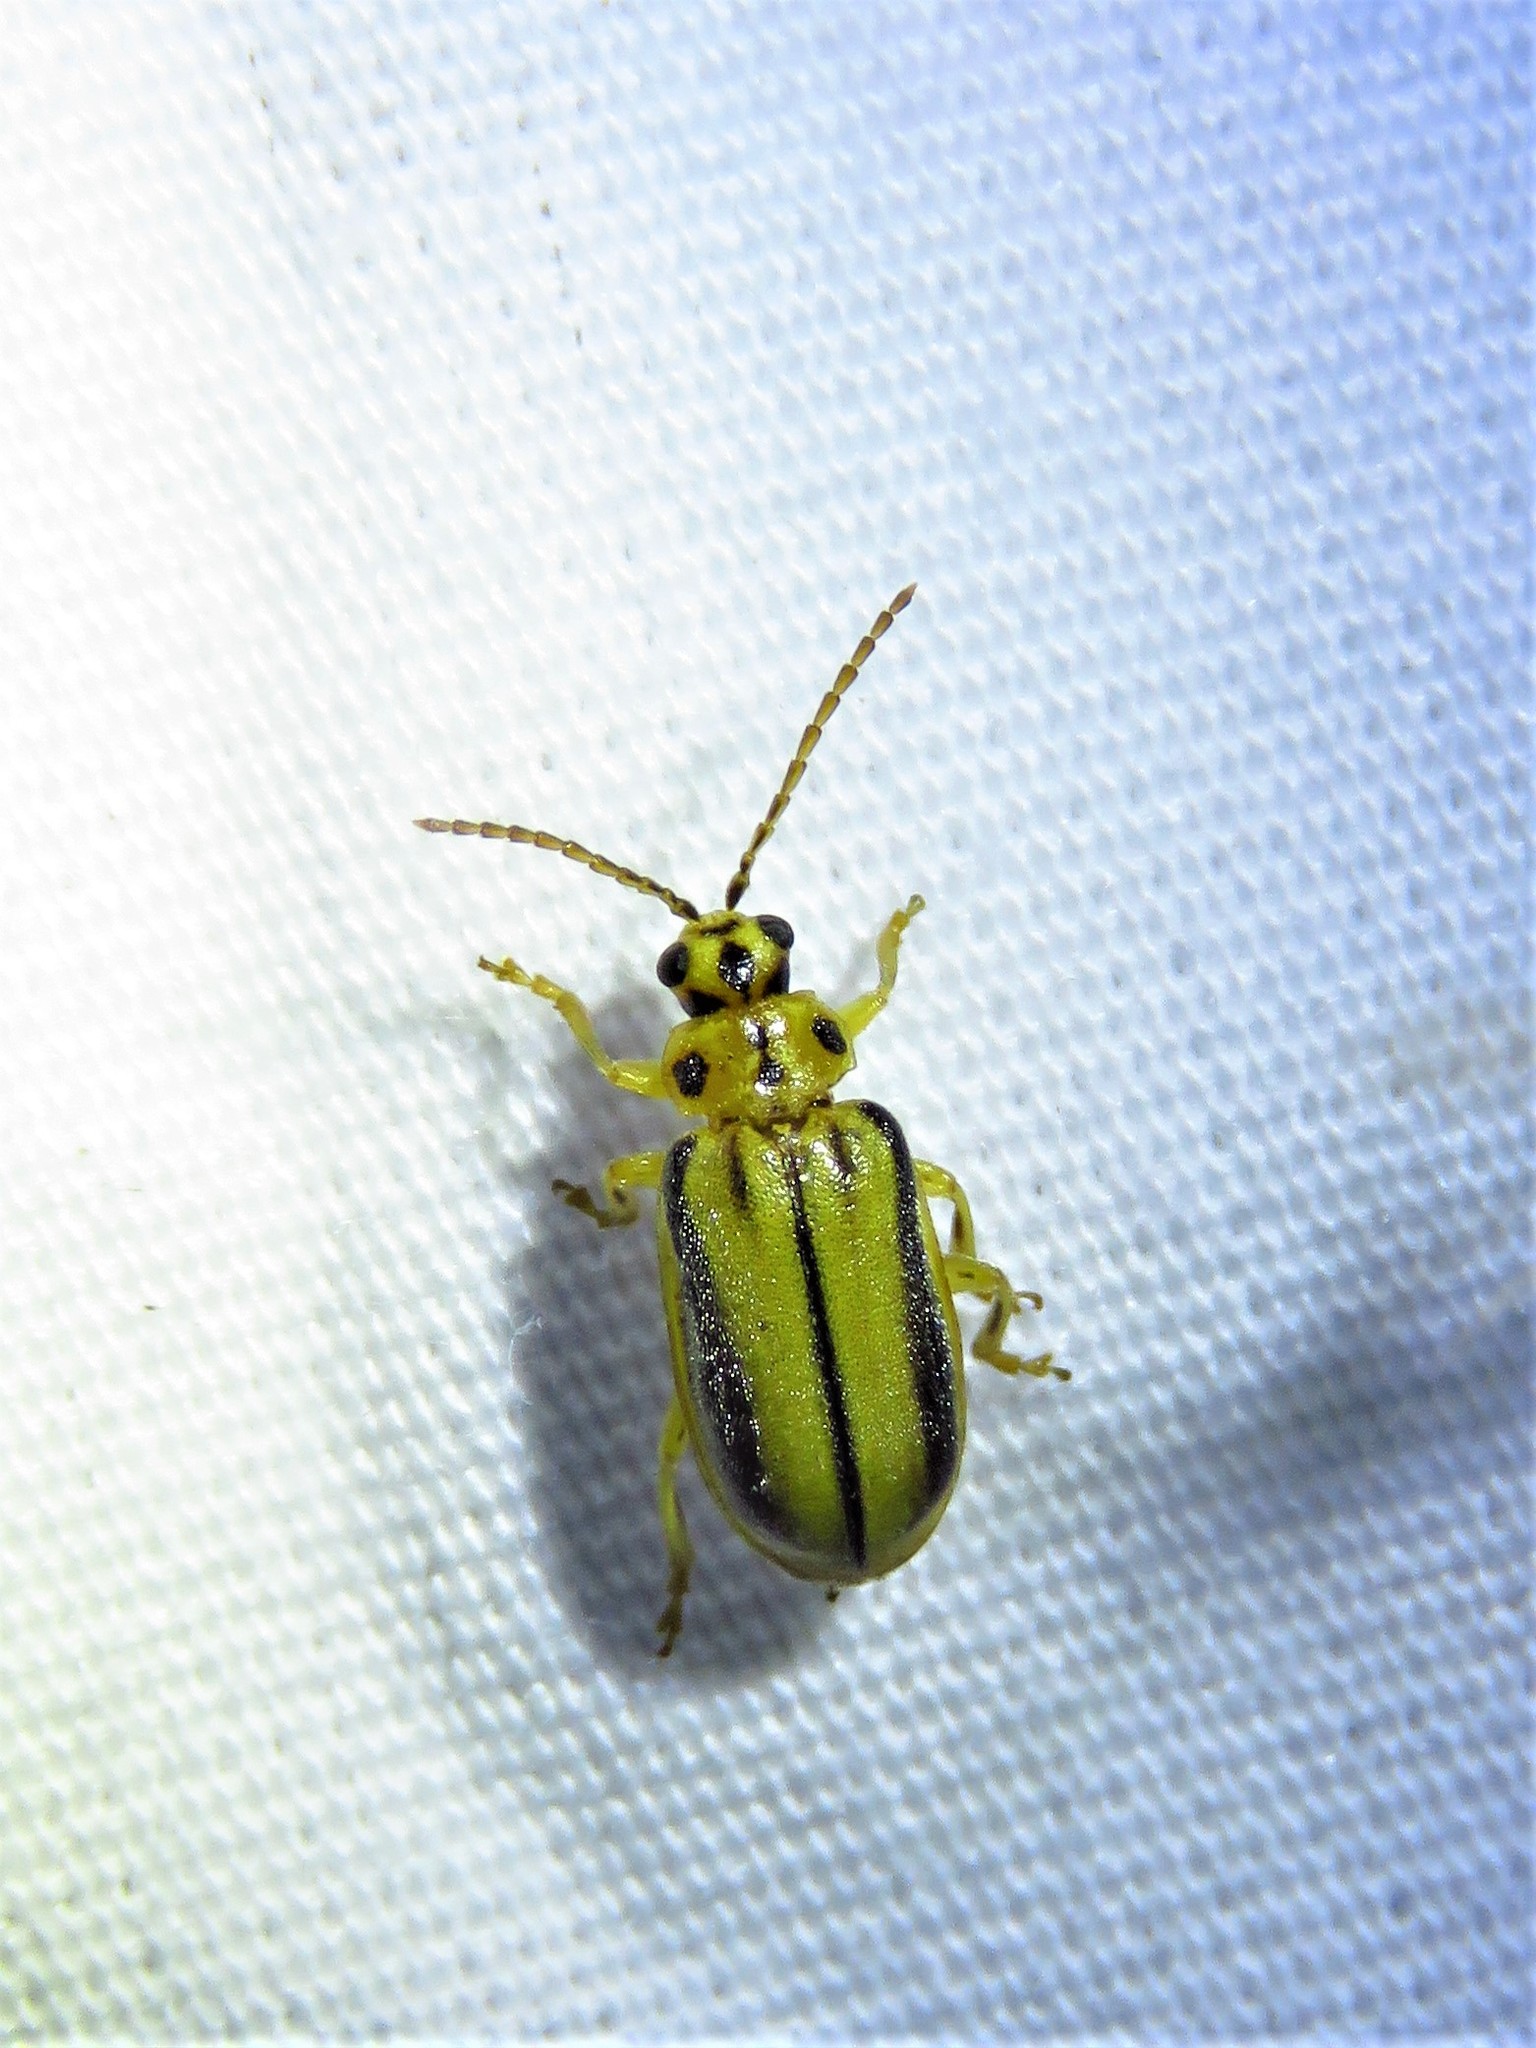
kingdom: Animalia
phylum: Arthropoda
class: Insecta
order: Coleoptera
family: Chrysomelidae
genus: Xanthogaleruca
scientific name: Xanthogaleruca luteola
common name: Elm leaf beetle
